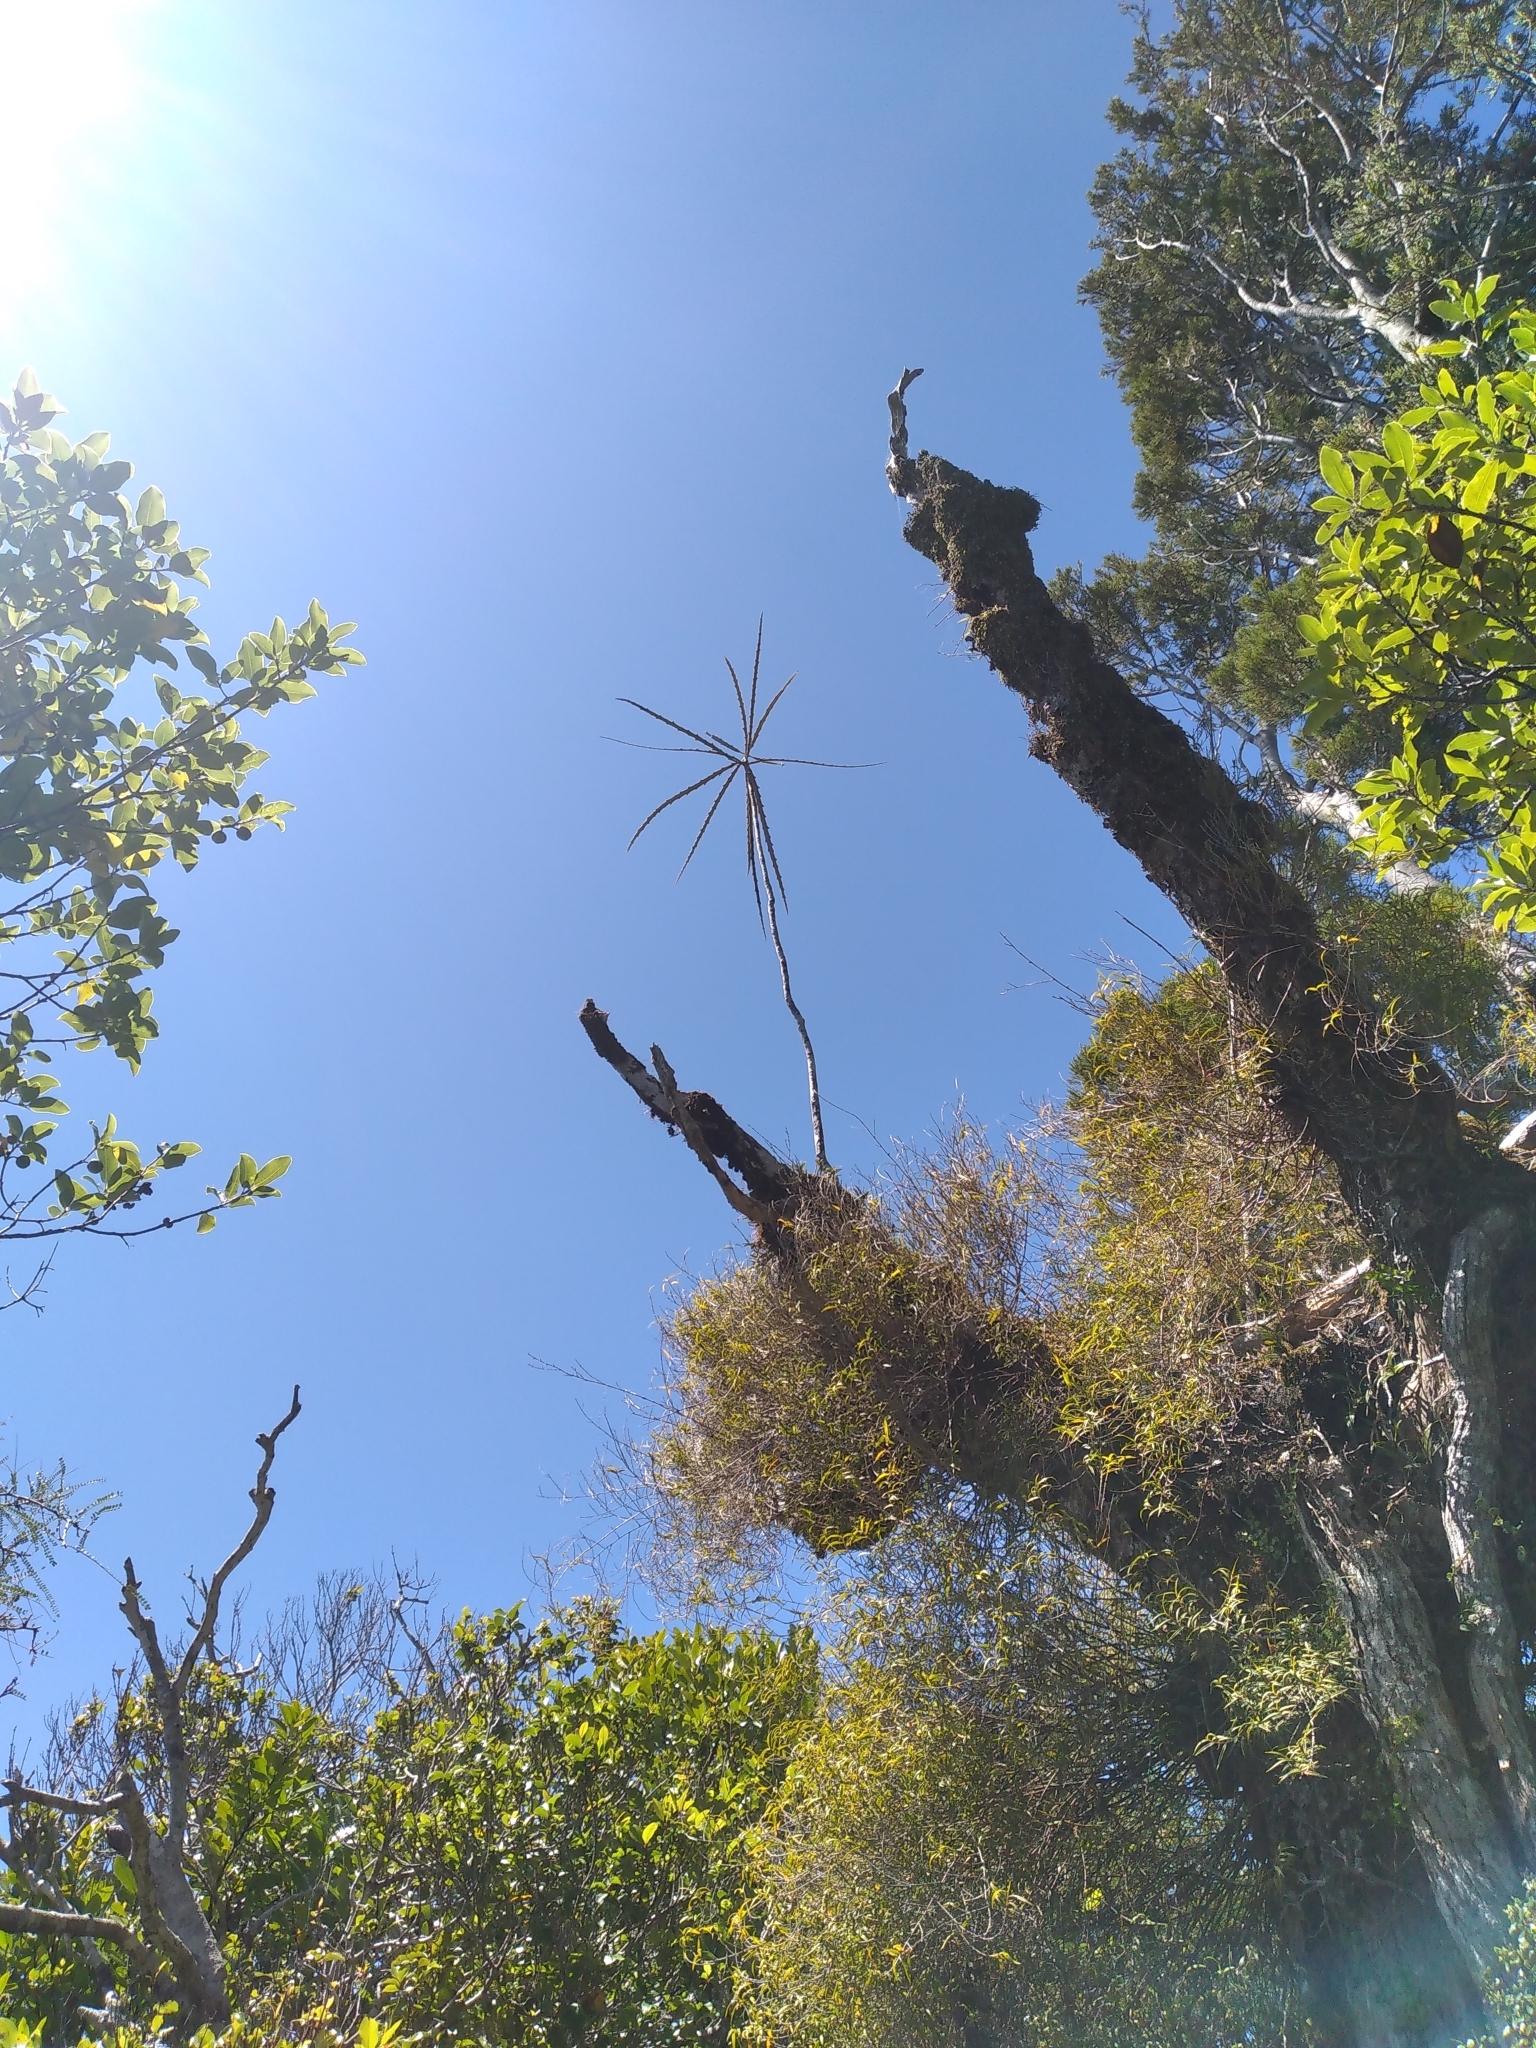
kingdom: Plantae
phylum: Tracheophyta
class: Magnoliopsida
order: Apiales
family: Araliaceae
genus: Pseudopanax
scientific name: Pseudopanax crassifolius
